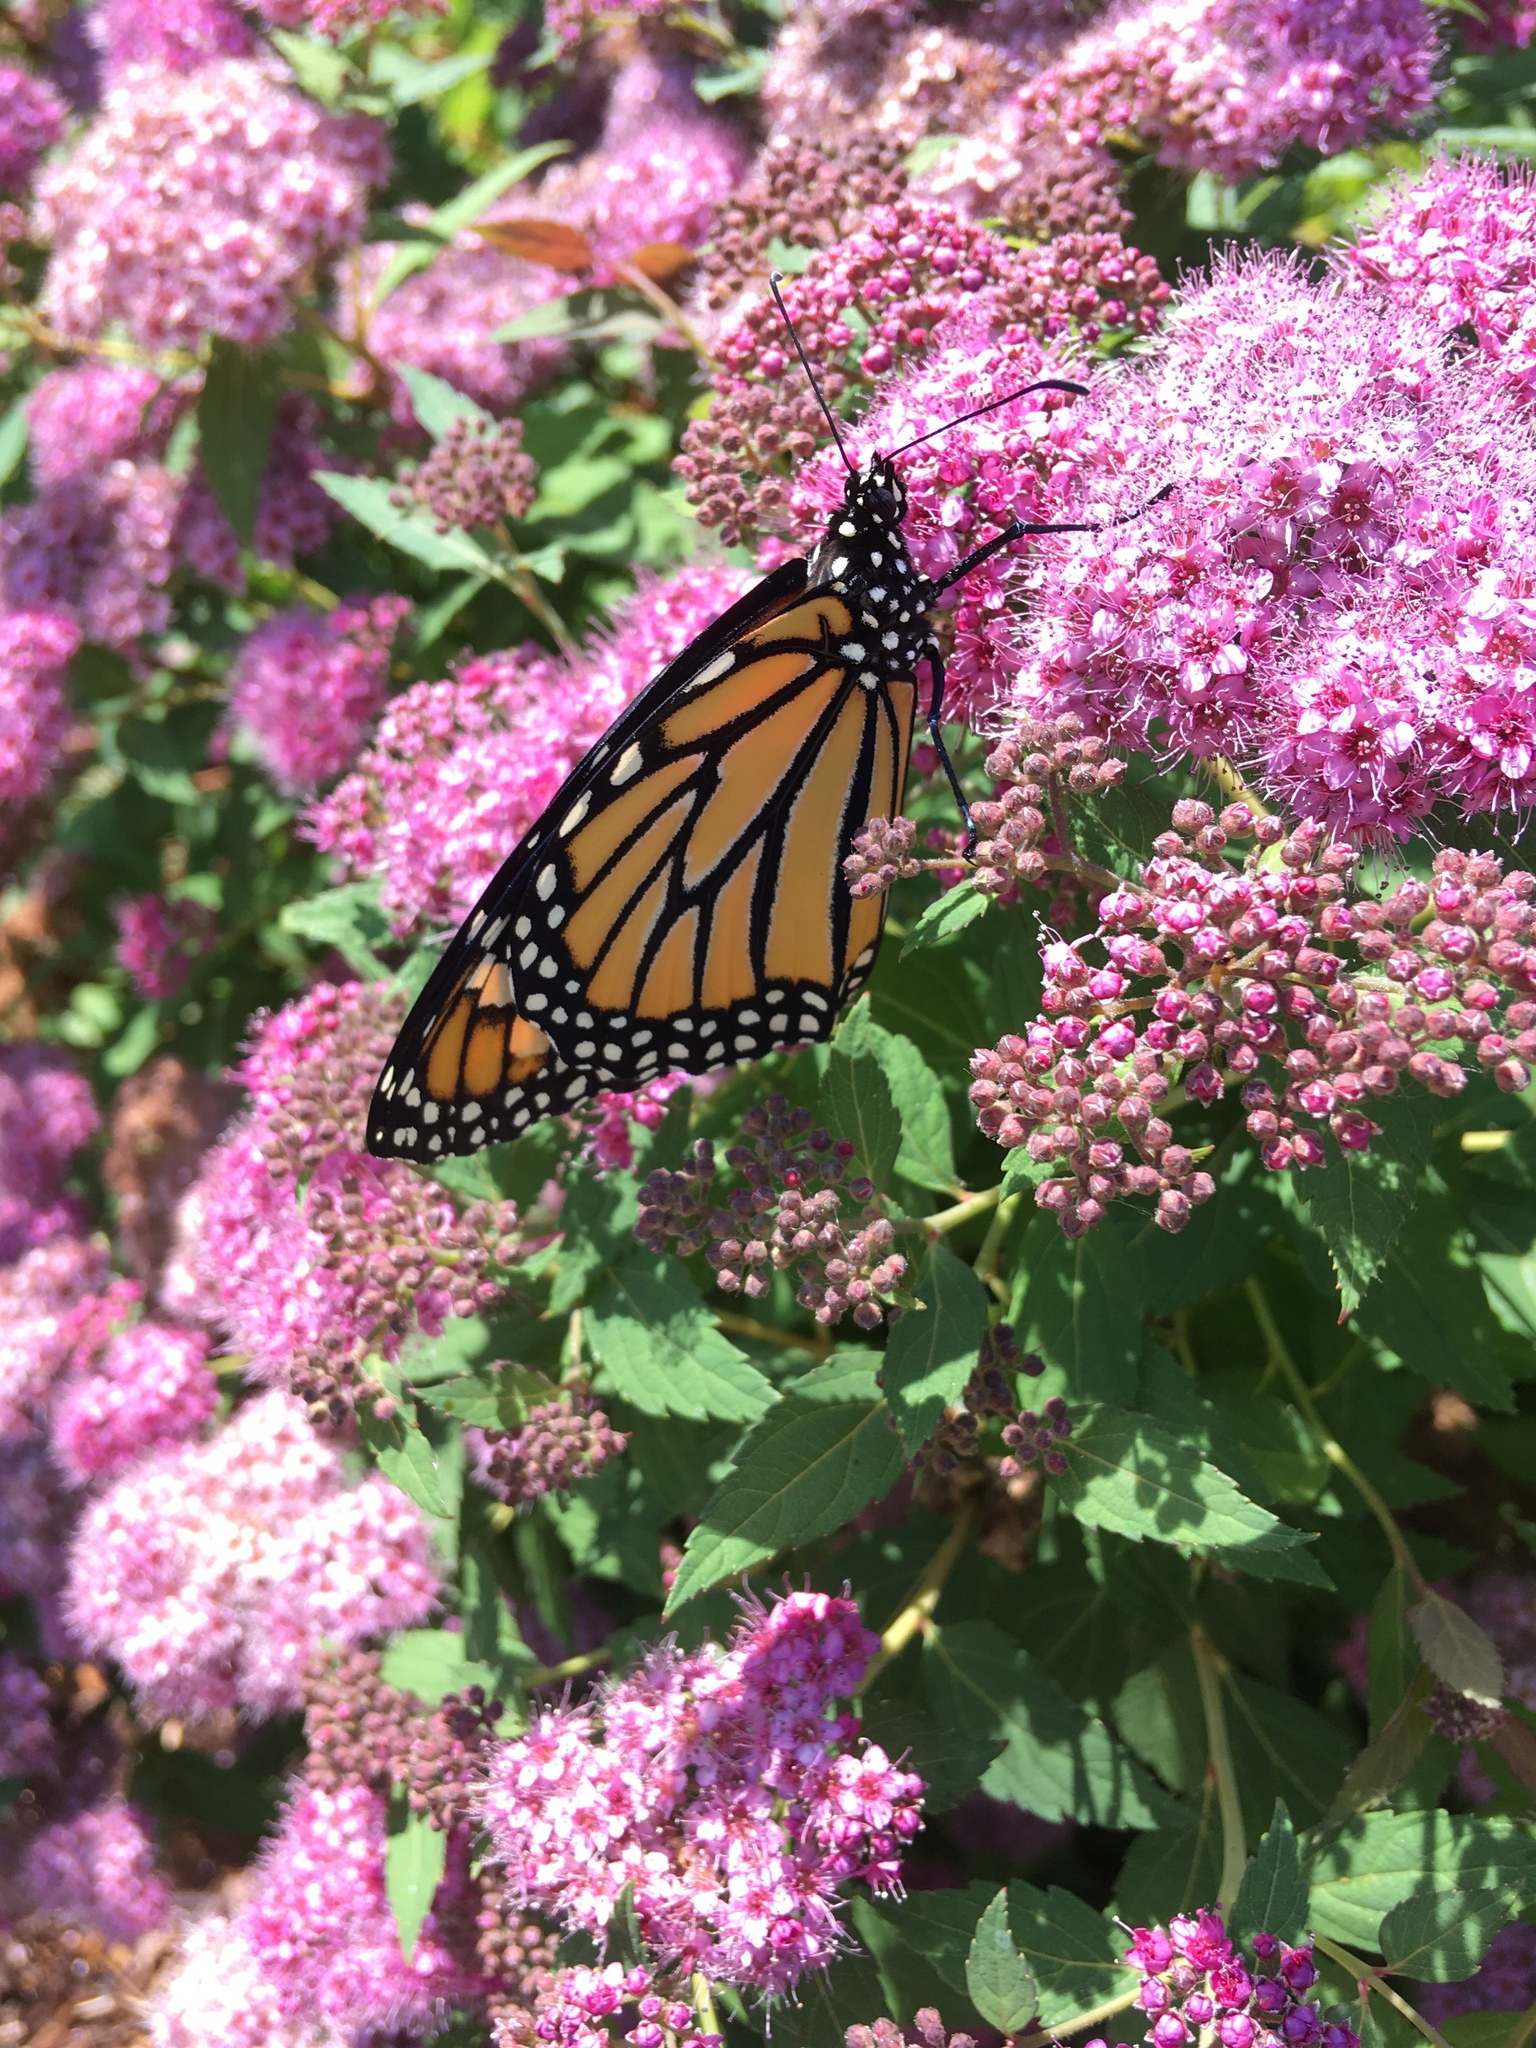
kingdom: Animalia
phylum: Arthropoda
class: Insecta
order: Lepidoptera
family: Nymphalidae
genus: Danaus
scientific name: Danaus plexippus
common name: Monarch
